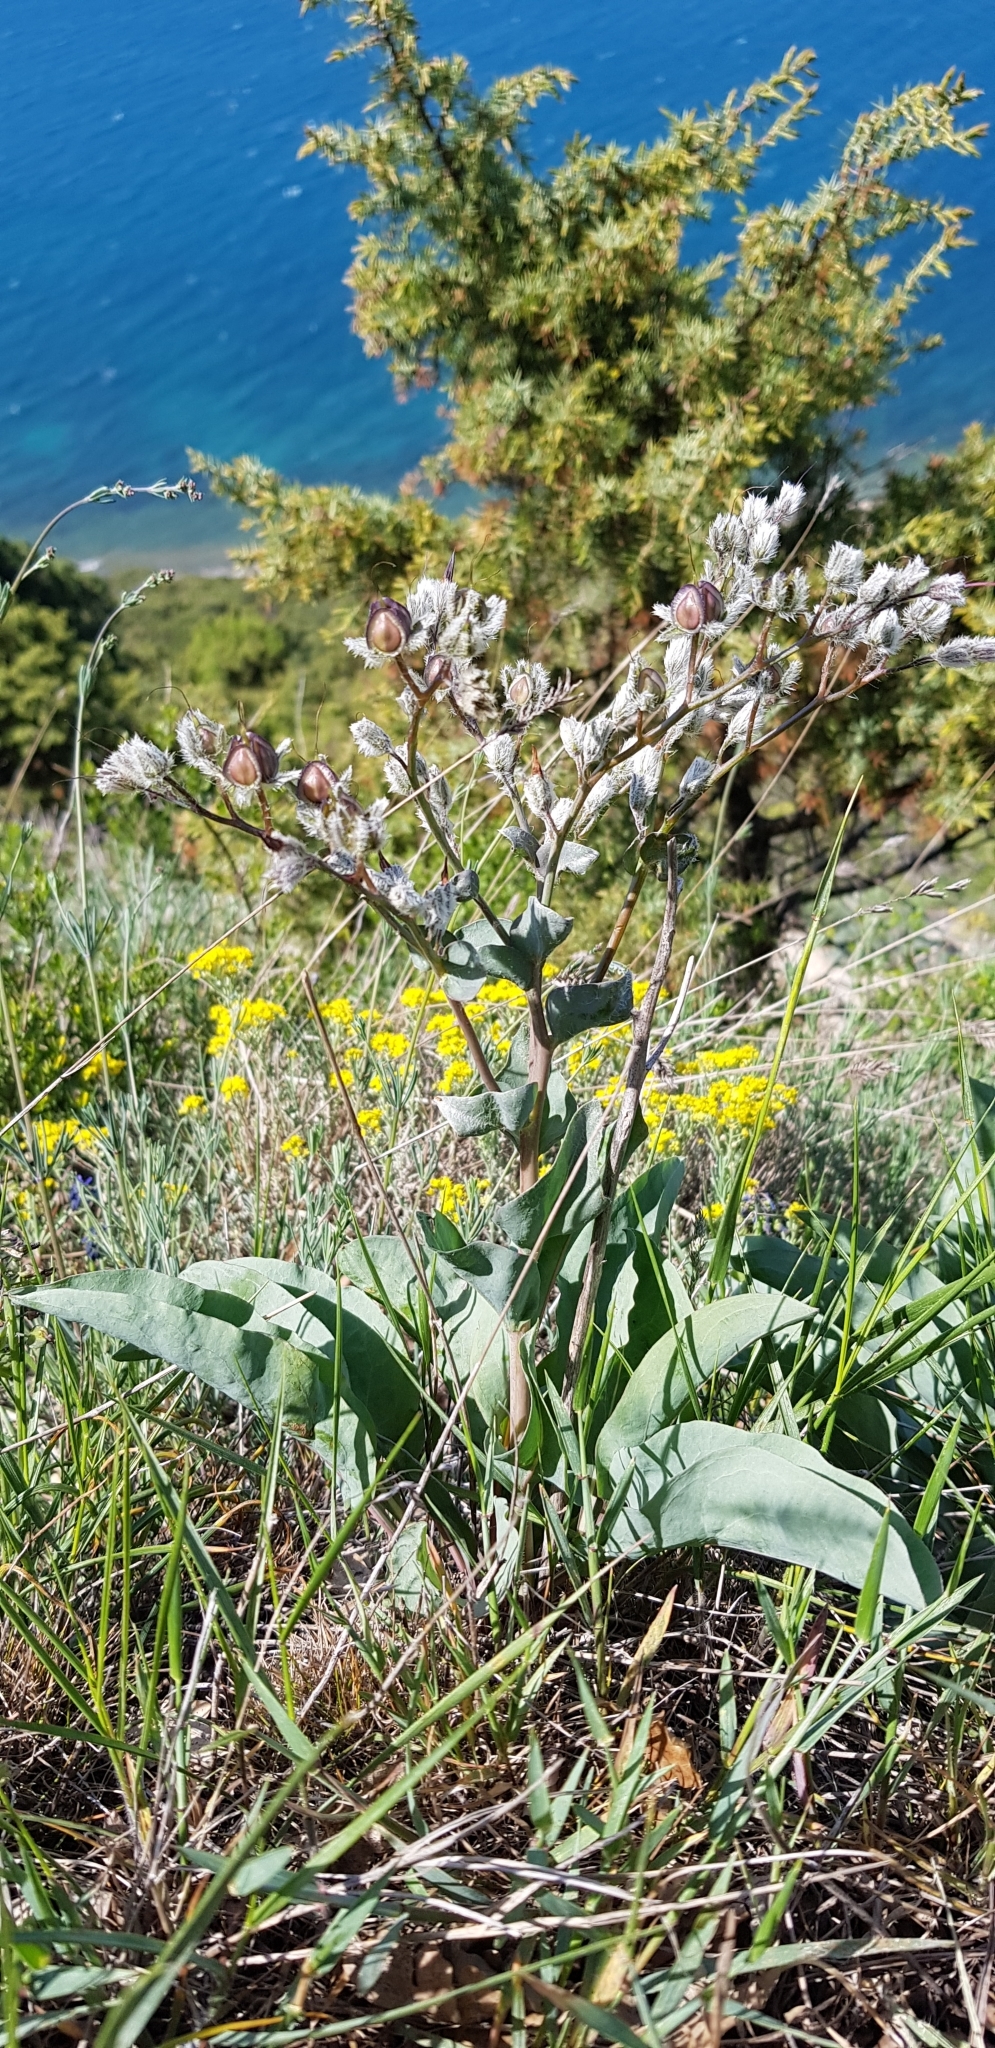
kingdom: Plantae
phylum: Tracheophyta
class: Magnoliopsida
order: Boraginales
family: Boraginaceae
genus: Rindera
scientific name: Rindera tetraspis
